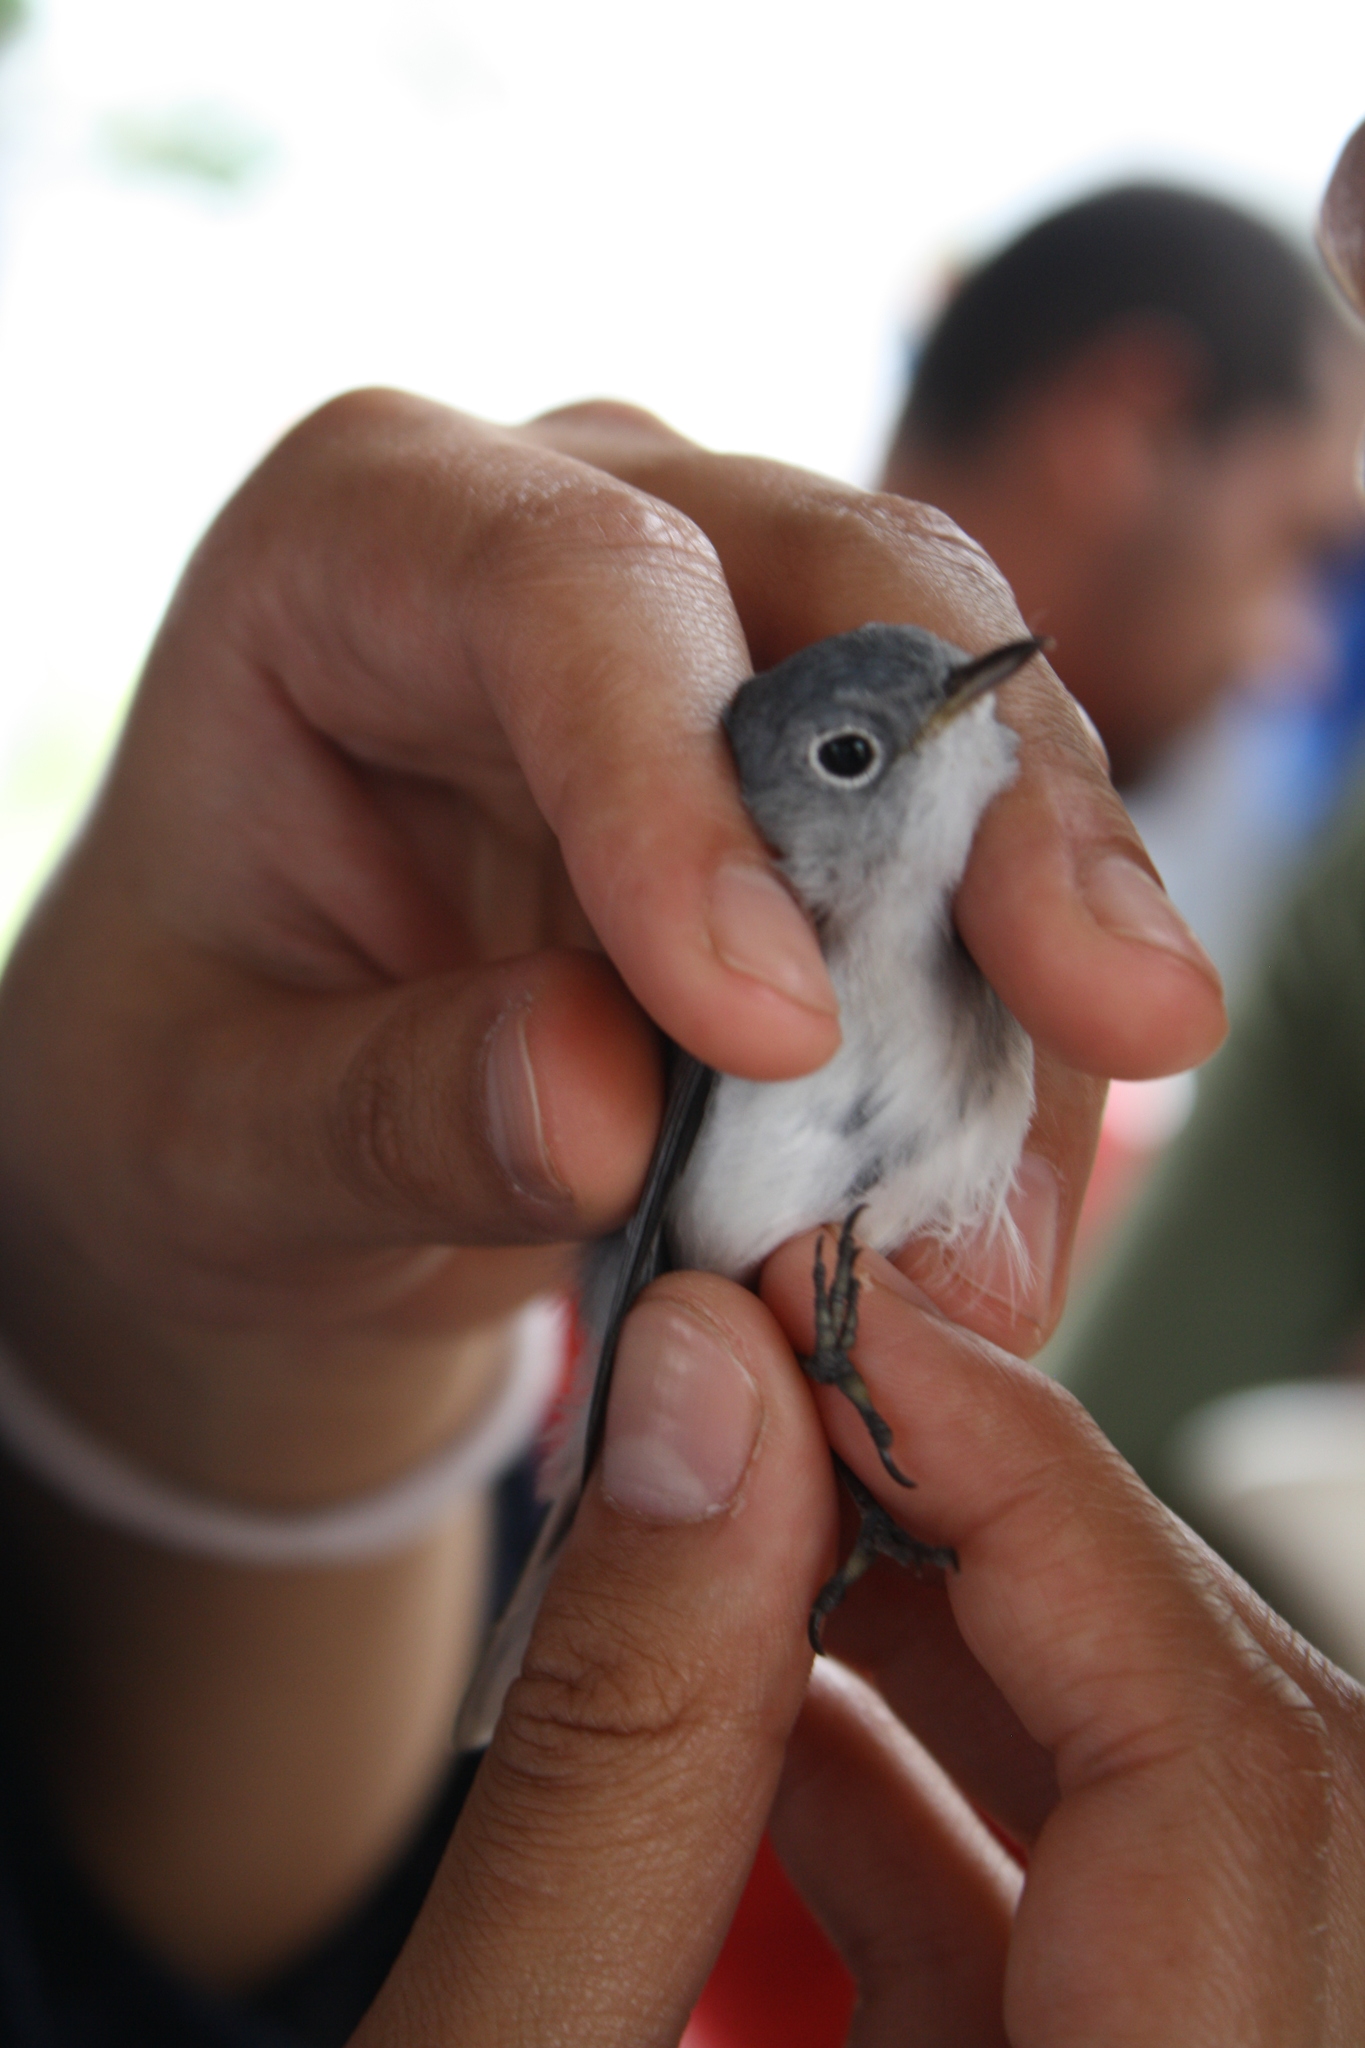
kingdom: Animalia
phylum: Chordata
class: Aves
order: Passeriformes
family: Polioptilidae
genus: Polioptila
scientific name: Polioptila caerulea
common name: Blue-gray gnatcatcher
